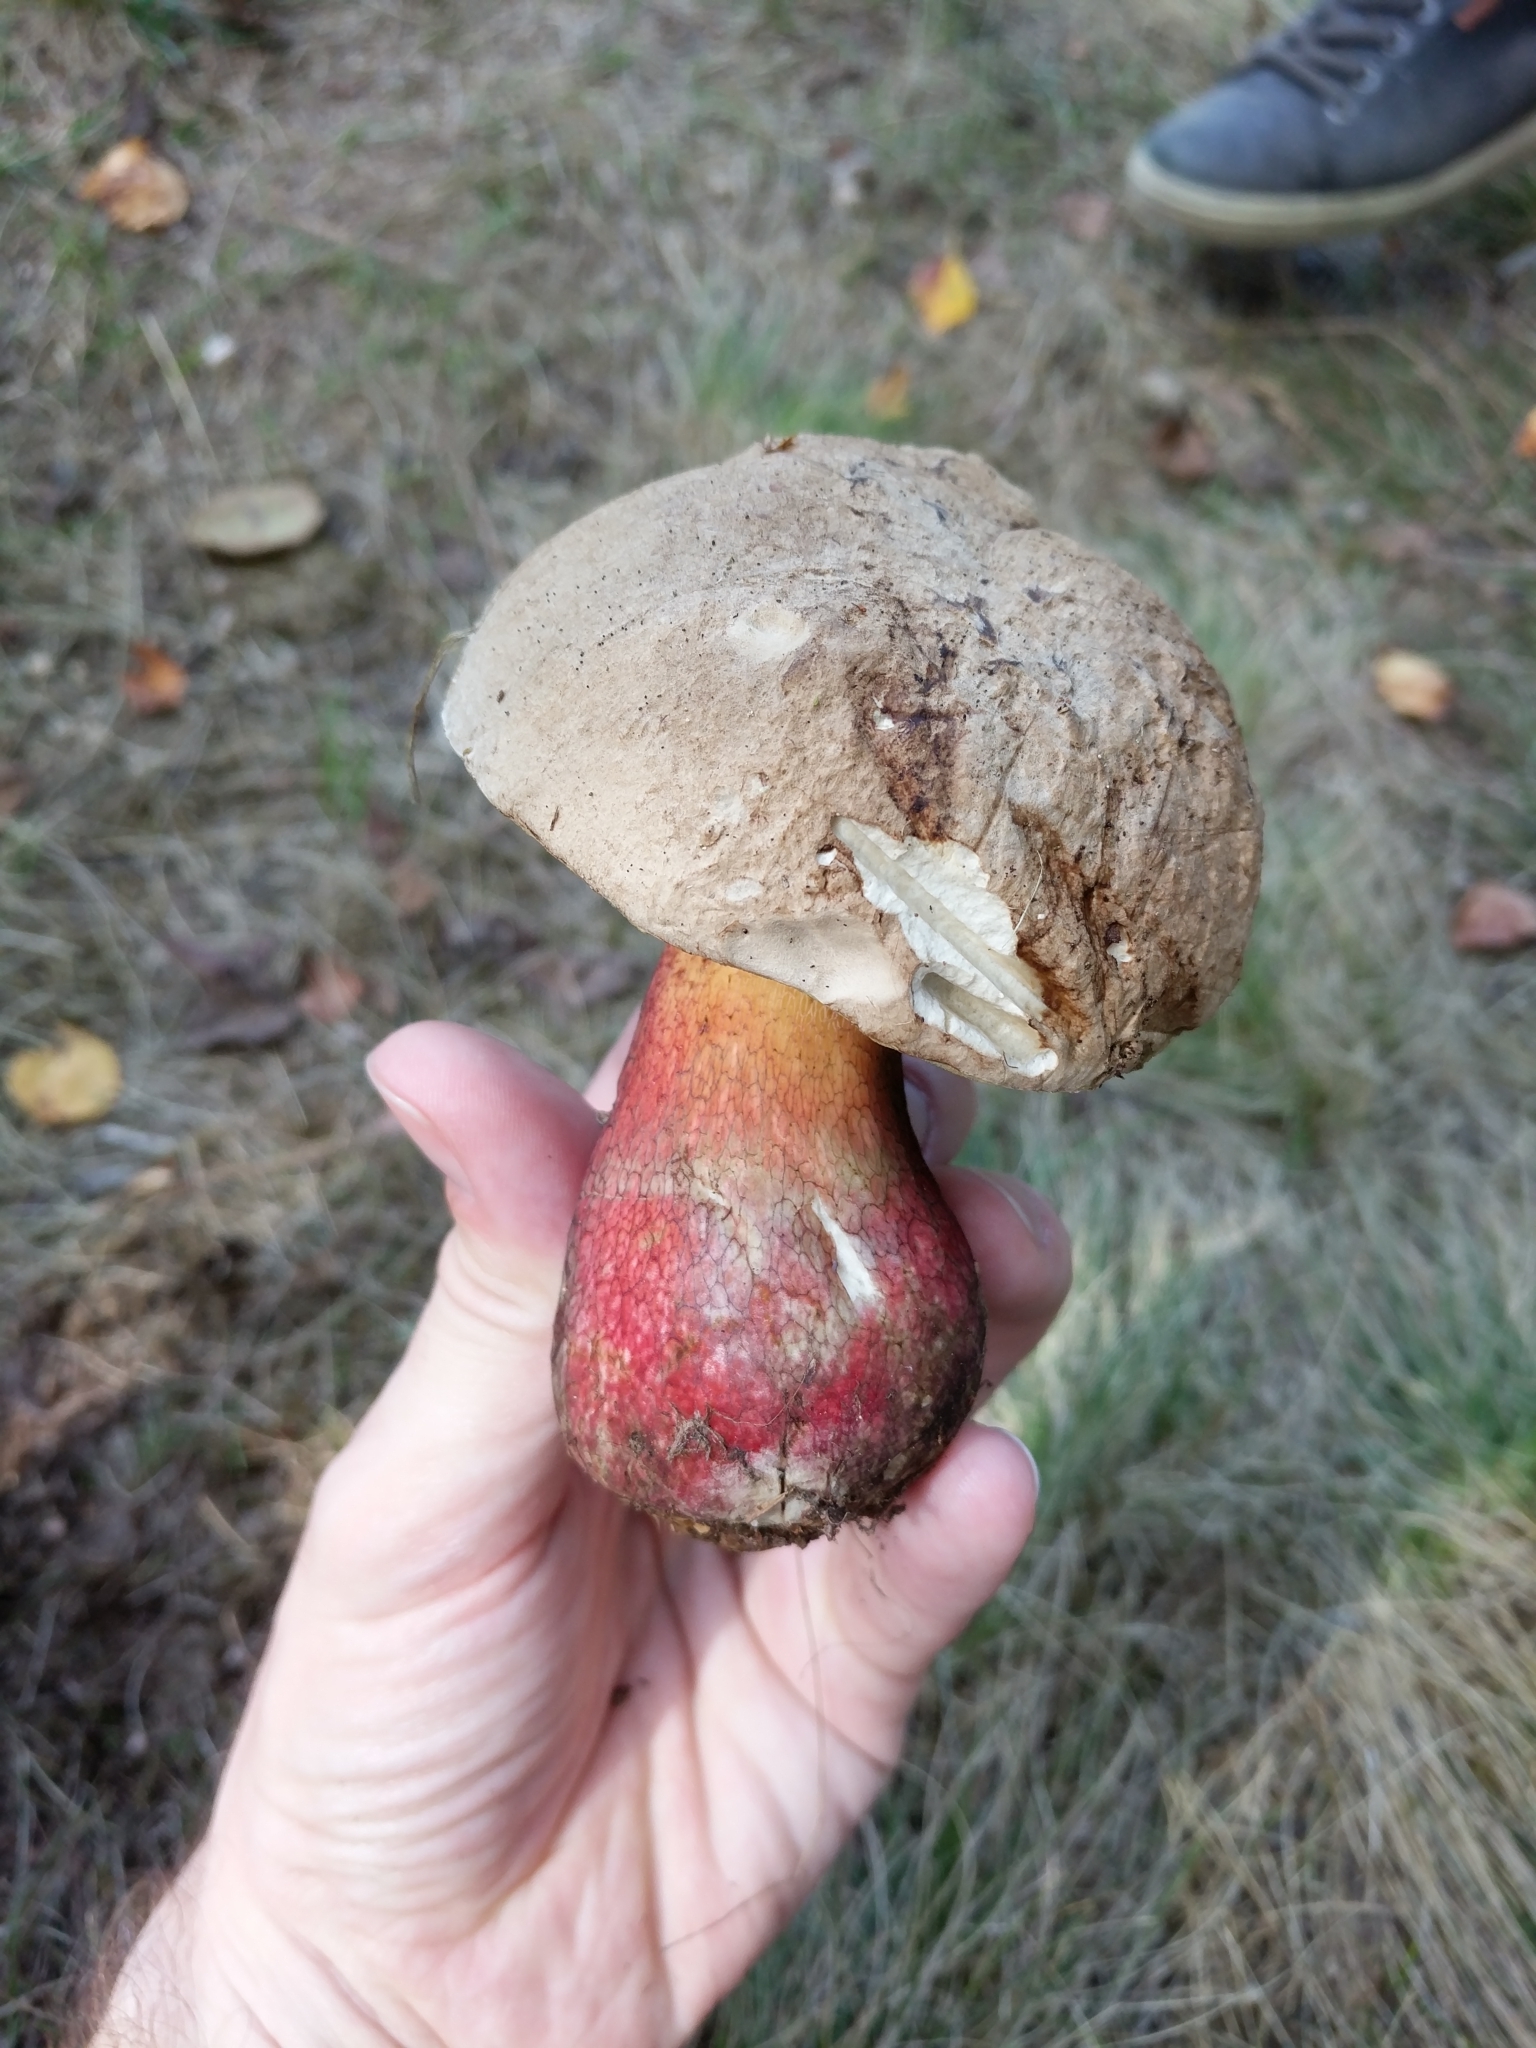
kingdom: Fungi
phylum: Basidiomycota
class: Agaricomycetes
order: Boletales
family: Boletaceae
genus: Caloboletus
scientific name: Caloboletus calopus
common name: Bitter beech bolete
